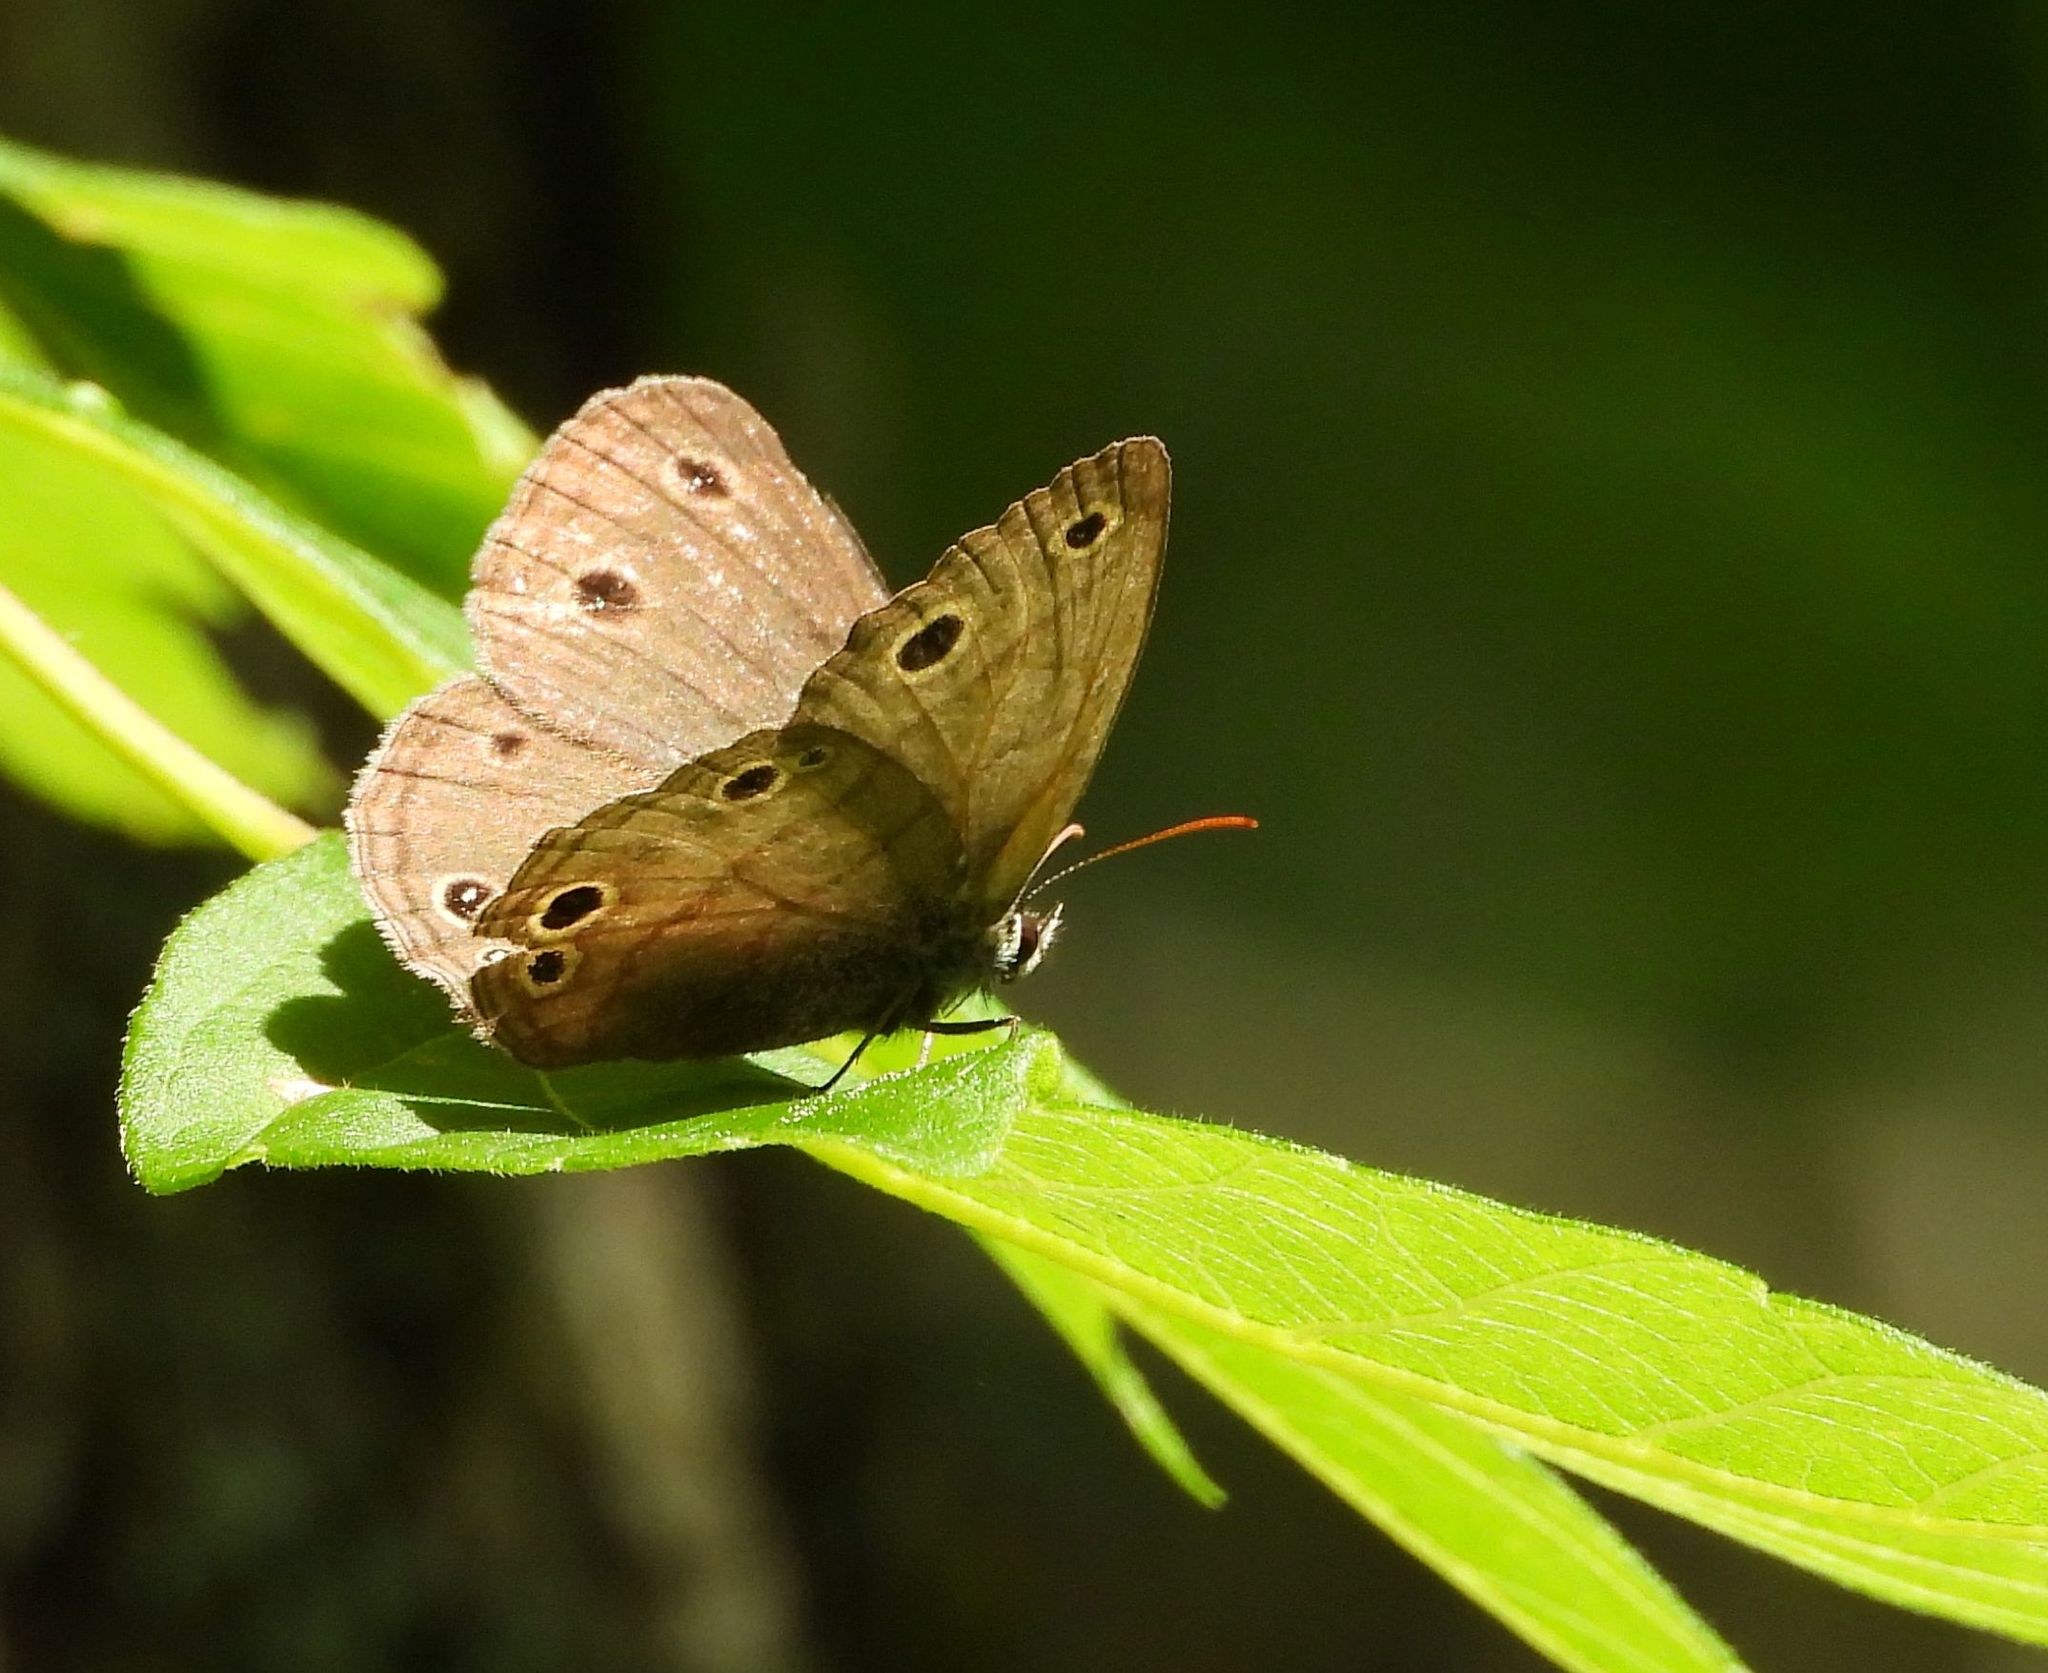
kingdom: Animalia
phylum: Arthropoda
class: Insecta
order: Lepidoptera
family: Nymphalidae
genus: Euptychia
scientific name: Euptychia cymela
